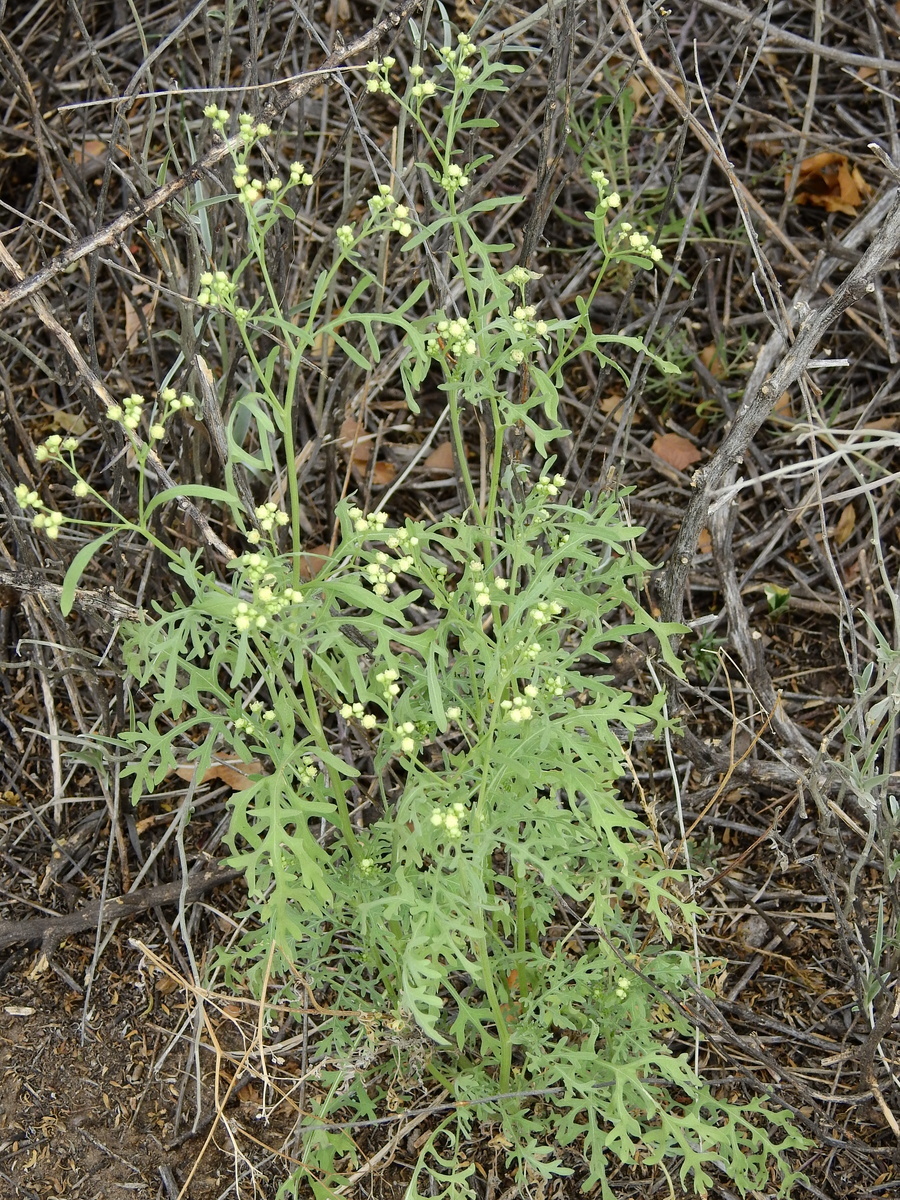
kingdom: Plantae
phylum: Tracheophyta
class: Magnoliopsida
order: Asterales
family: Asteraceae
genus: Parthenium
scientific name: Parthenium hysterophorus
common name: Santa maria feverfew
